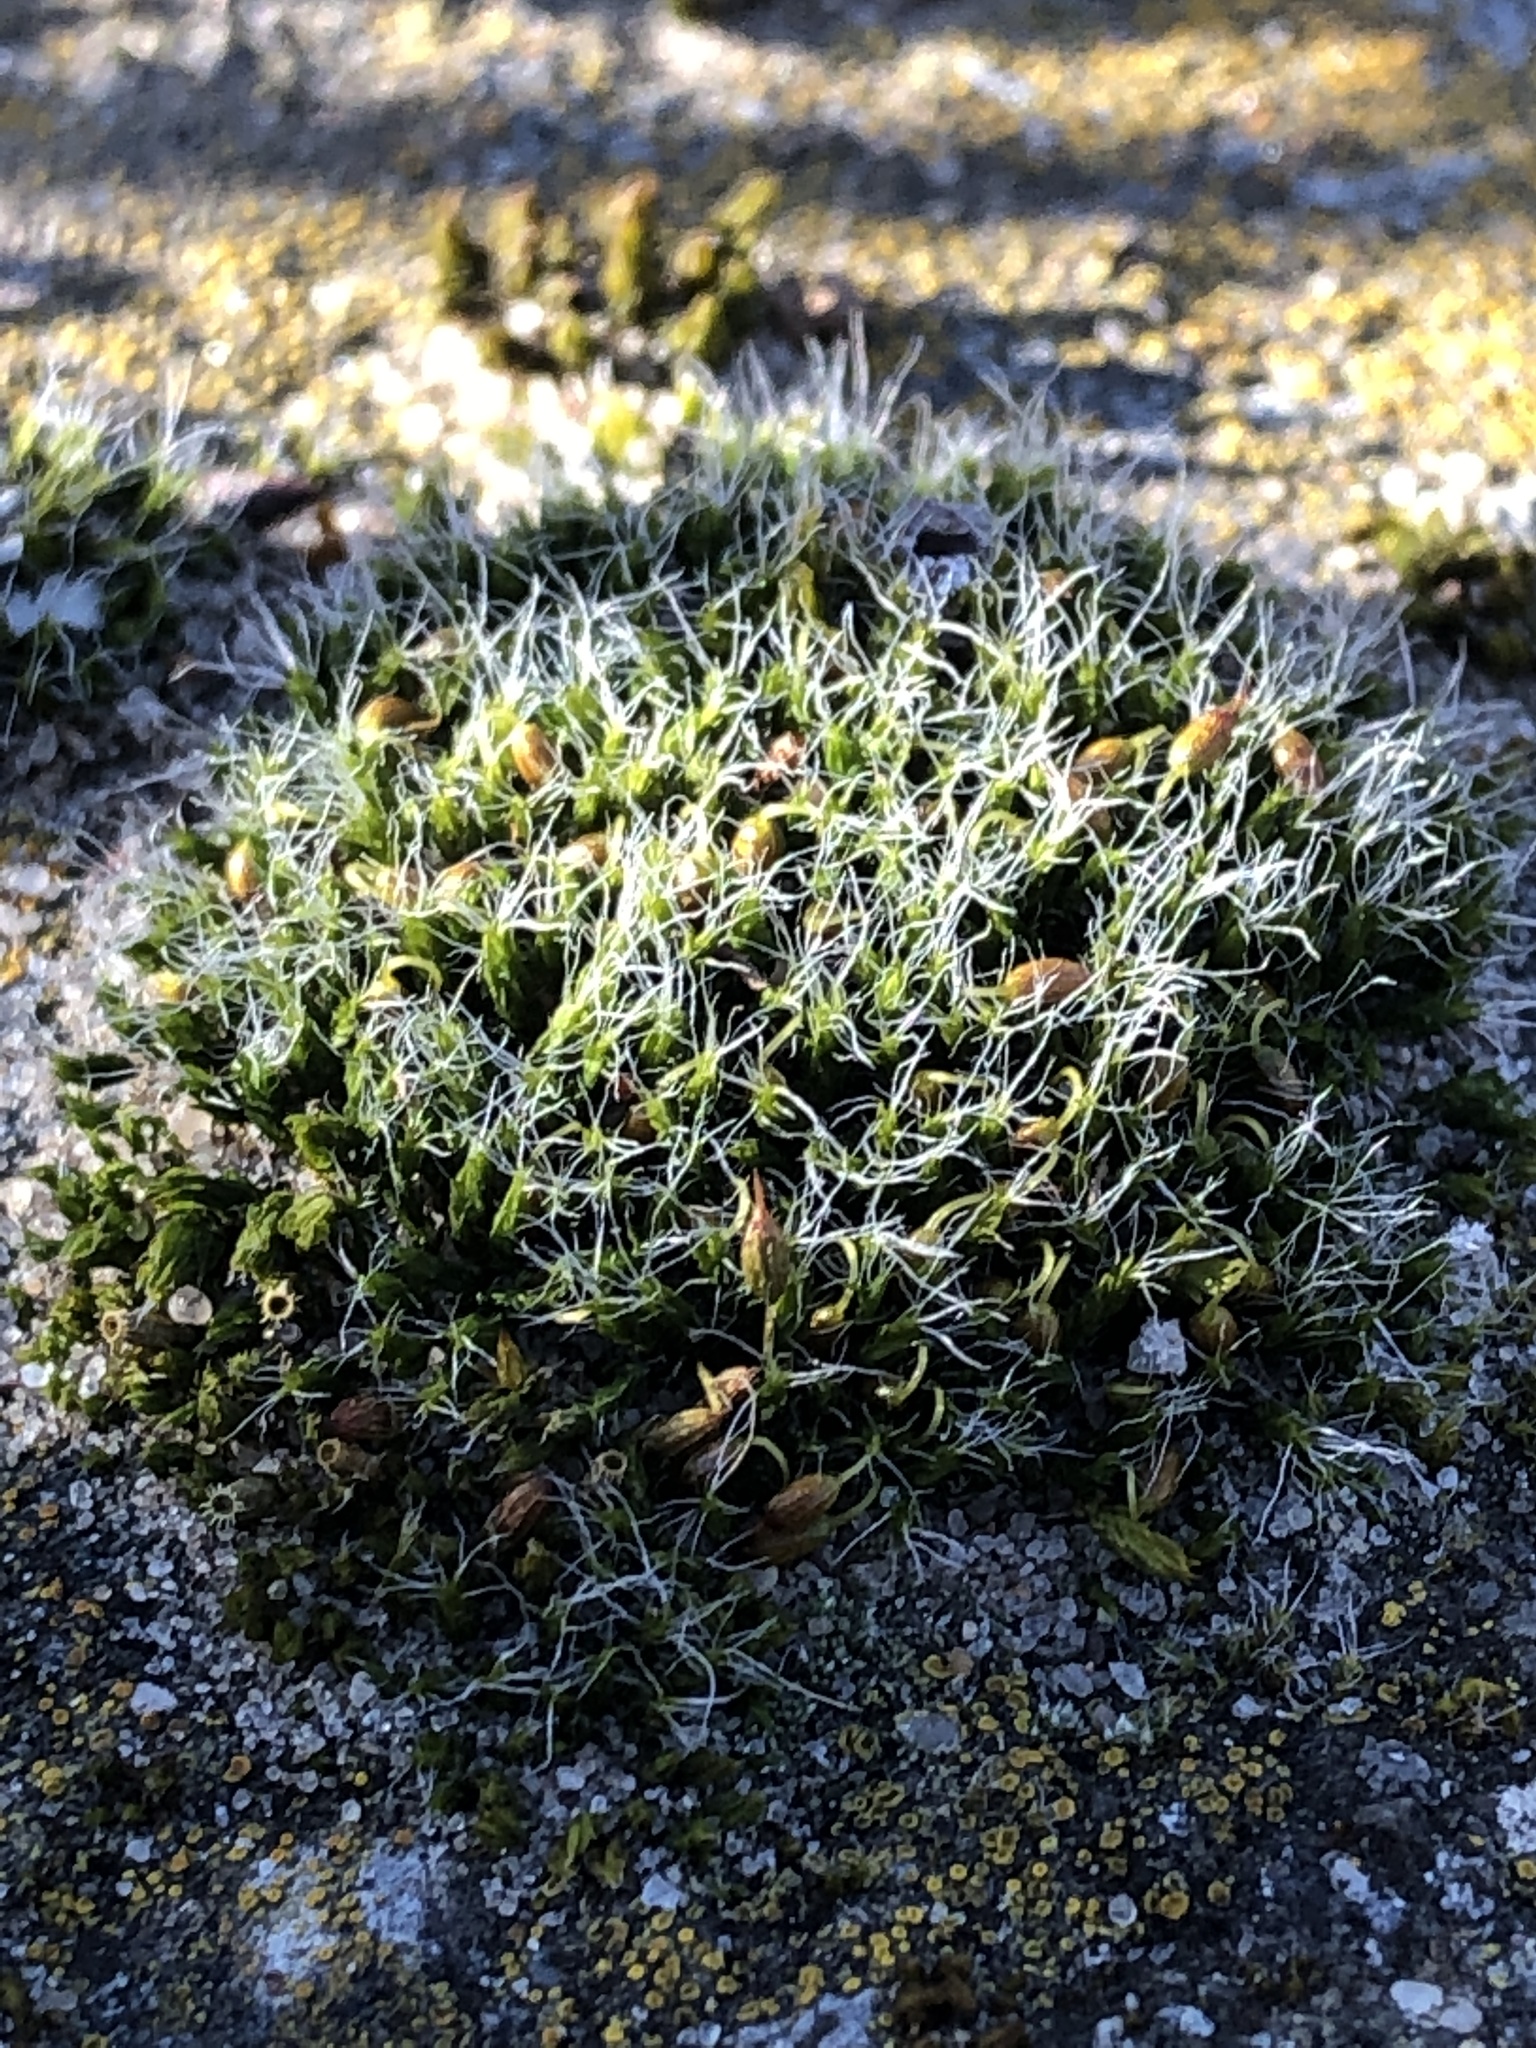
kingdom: Plantae
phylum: Bryophyta
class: Bryopsida
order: Grimmiales
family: Grimmiaceae
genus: Grimmia
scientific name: Grimmia pulvinata
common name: Grey-cushioned grimmia
